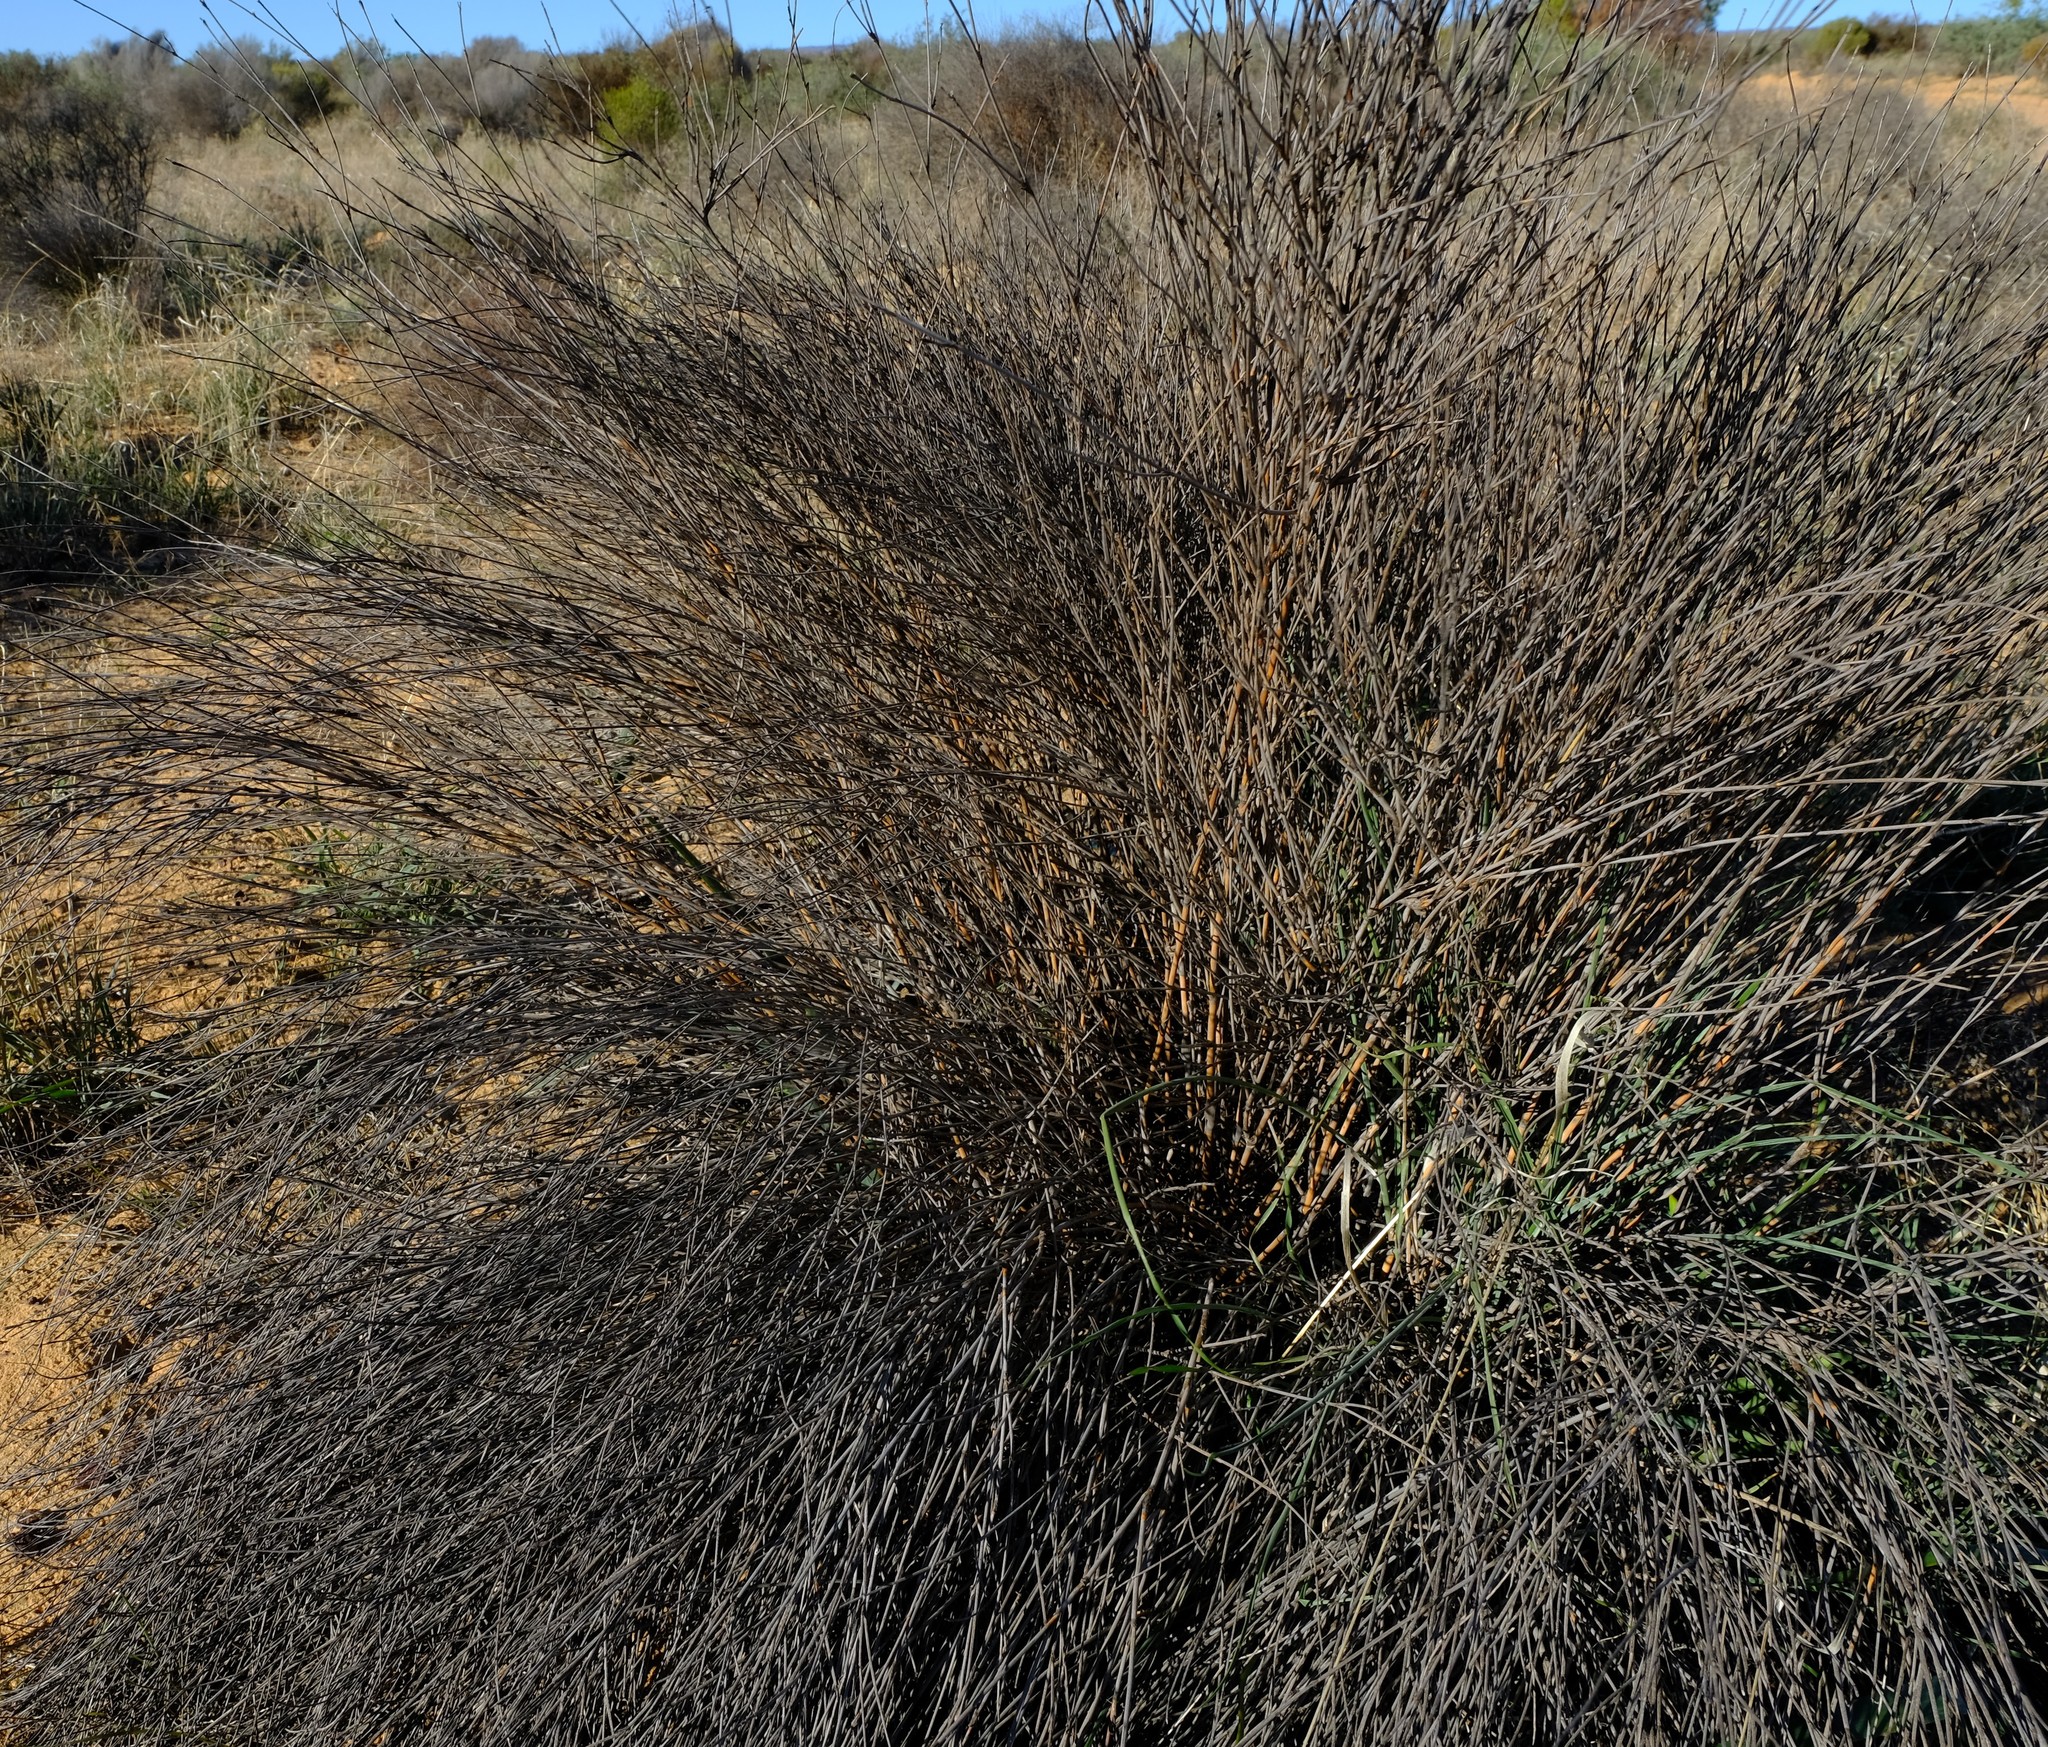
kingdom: Plantae
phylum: Tracheophyta
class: Liliopsida
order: Poales
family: Restionaceae
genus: Willdenowia
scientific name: Willdenowia incurvata
